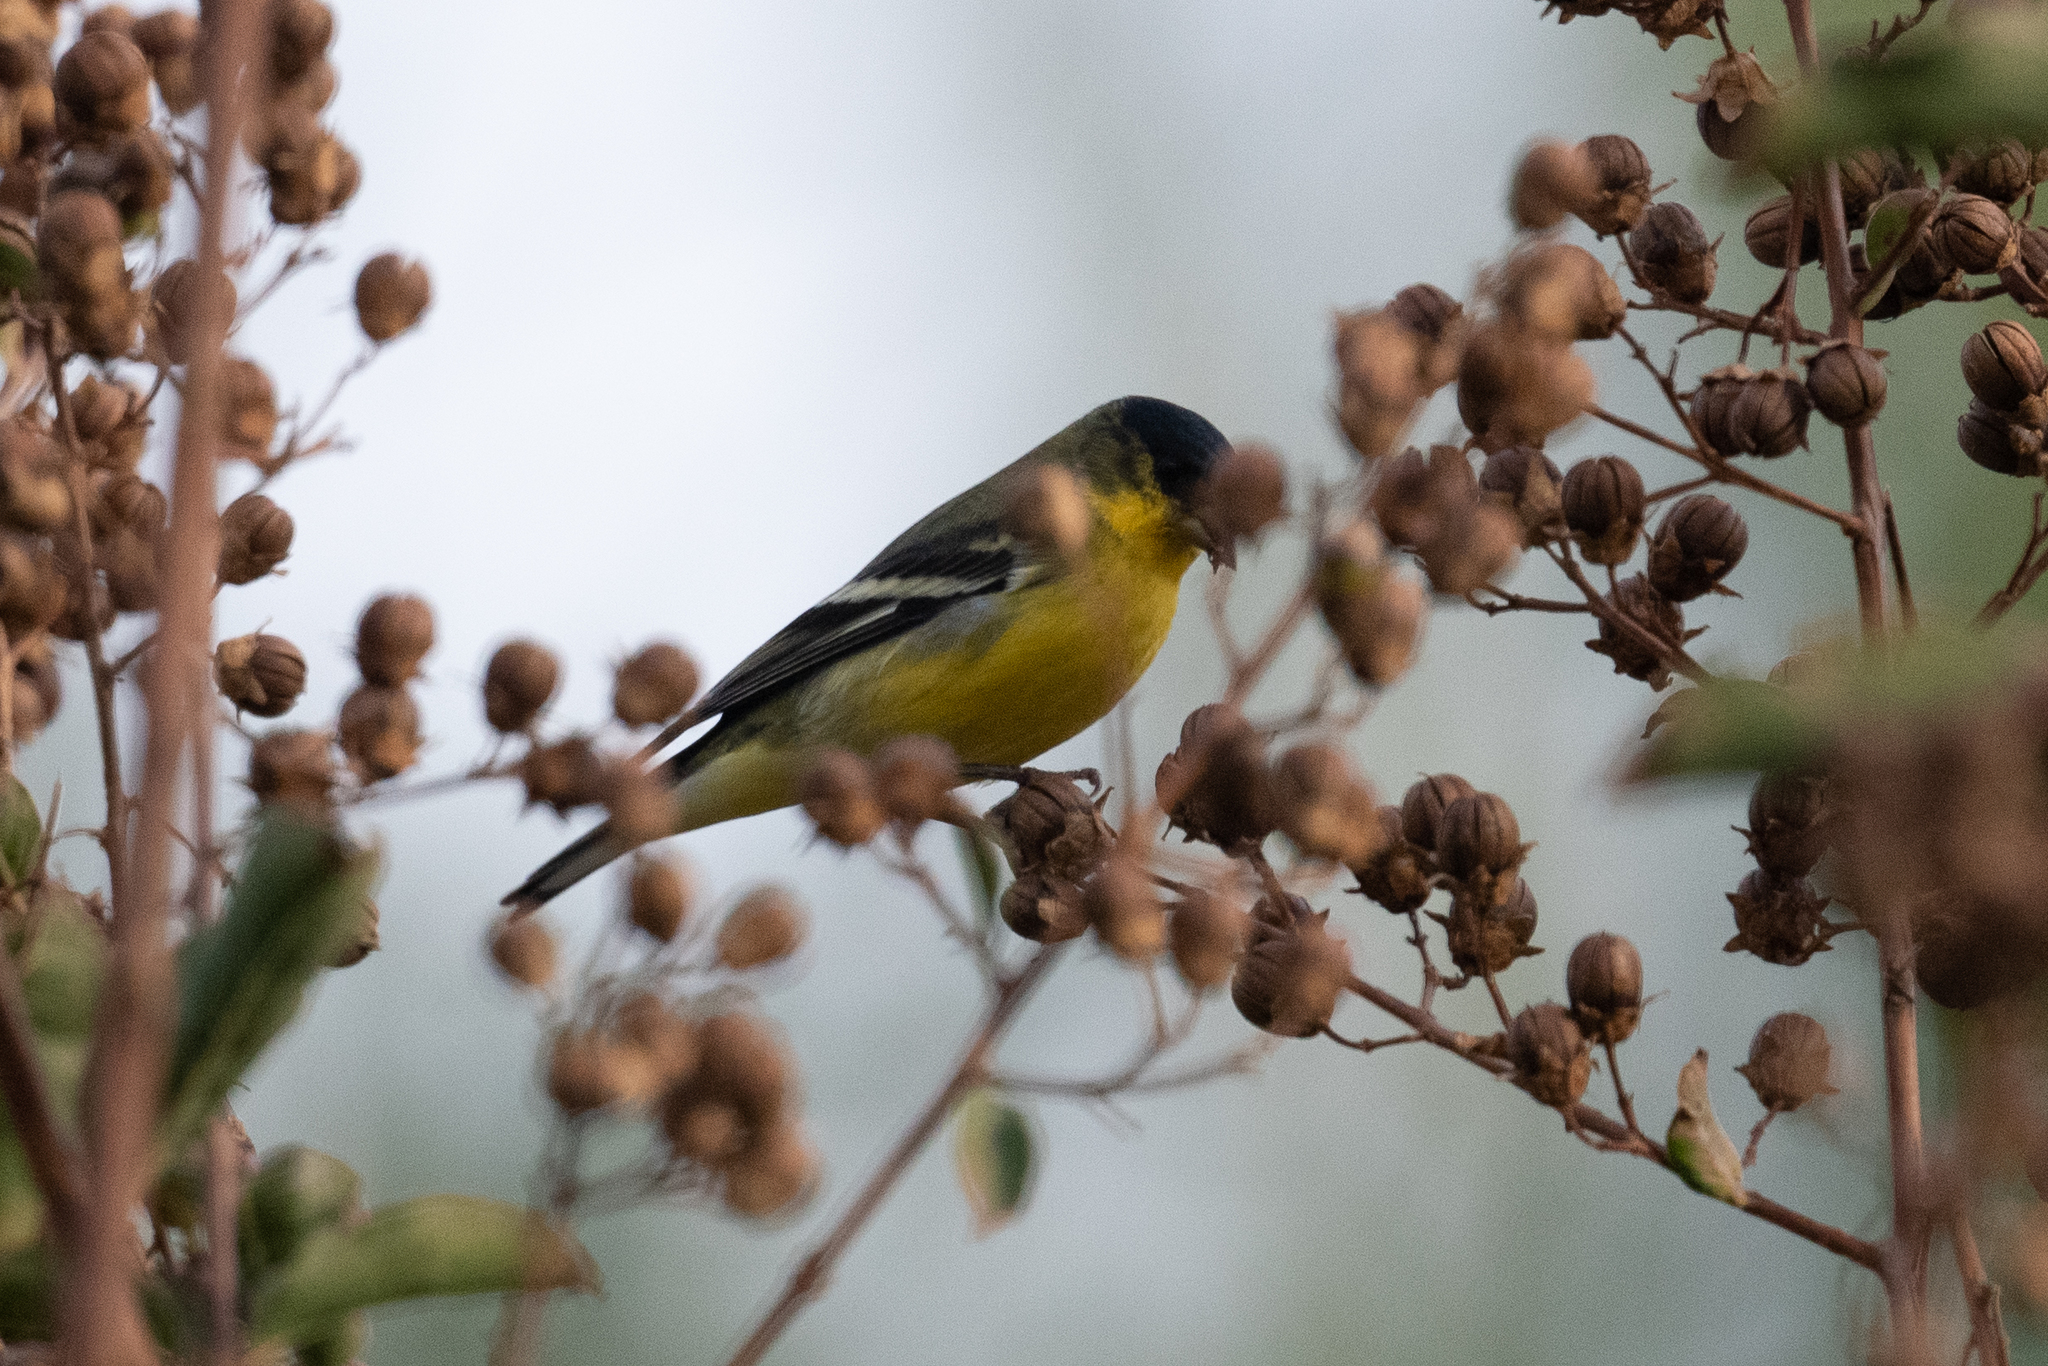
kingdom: Animalia
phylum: Chordata
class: Aves
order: Passeriformes
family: Fringillidae
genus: Spinus
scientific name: Spinus psaltria
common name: Lesser goldfinch
